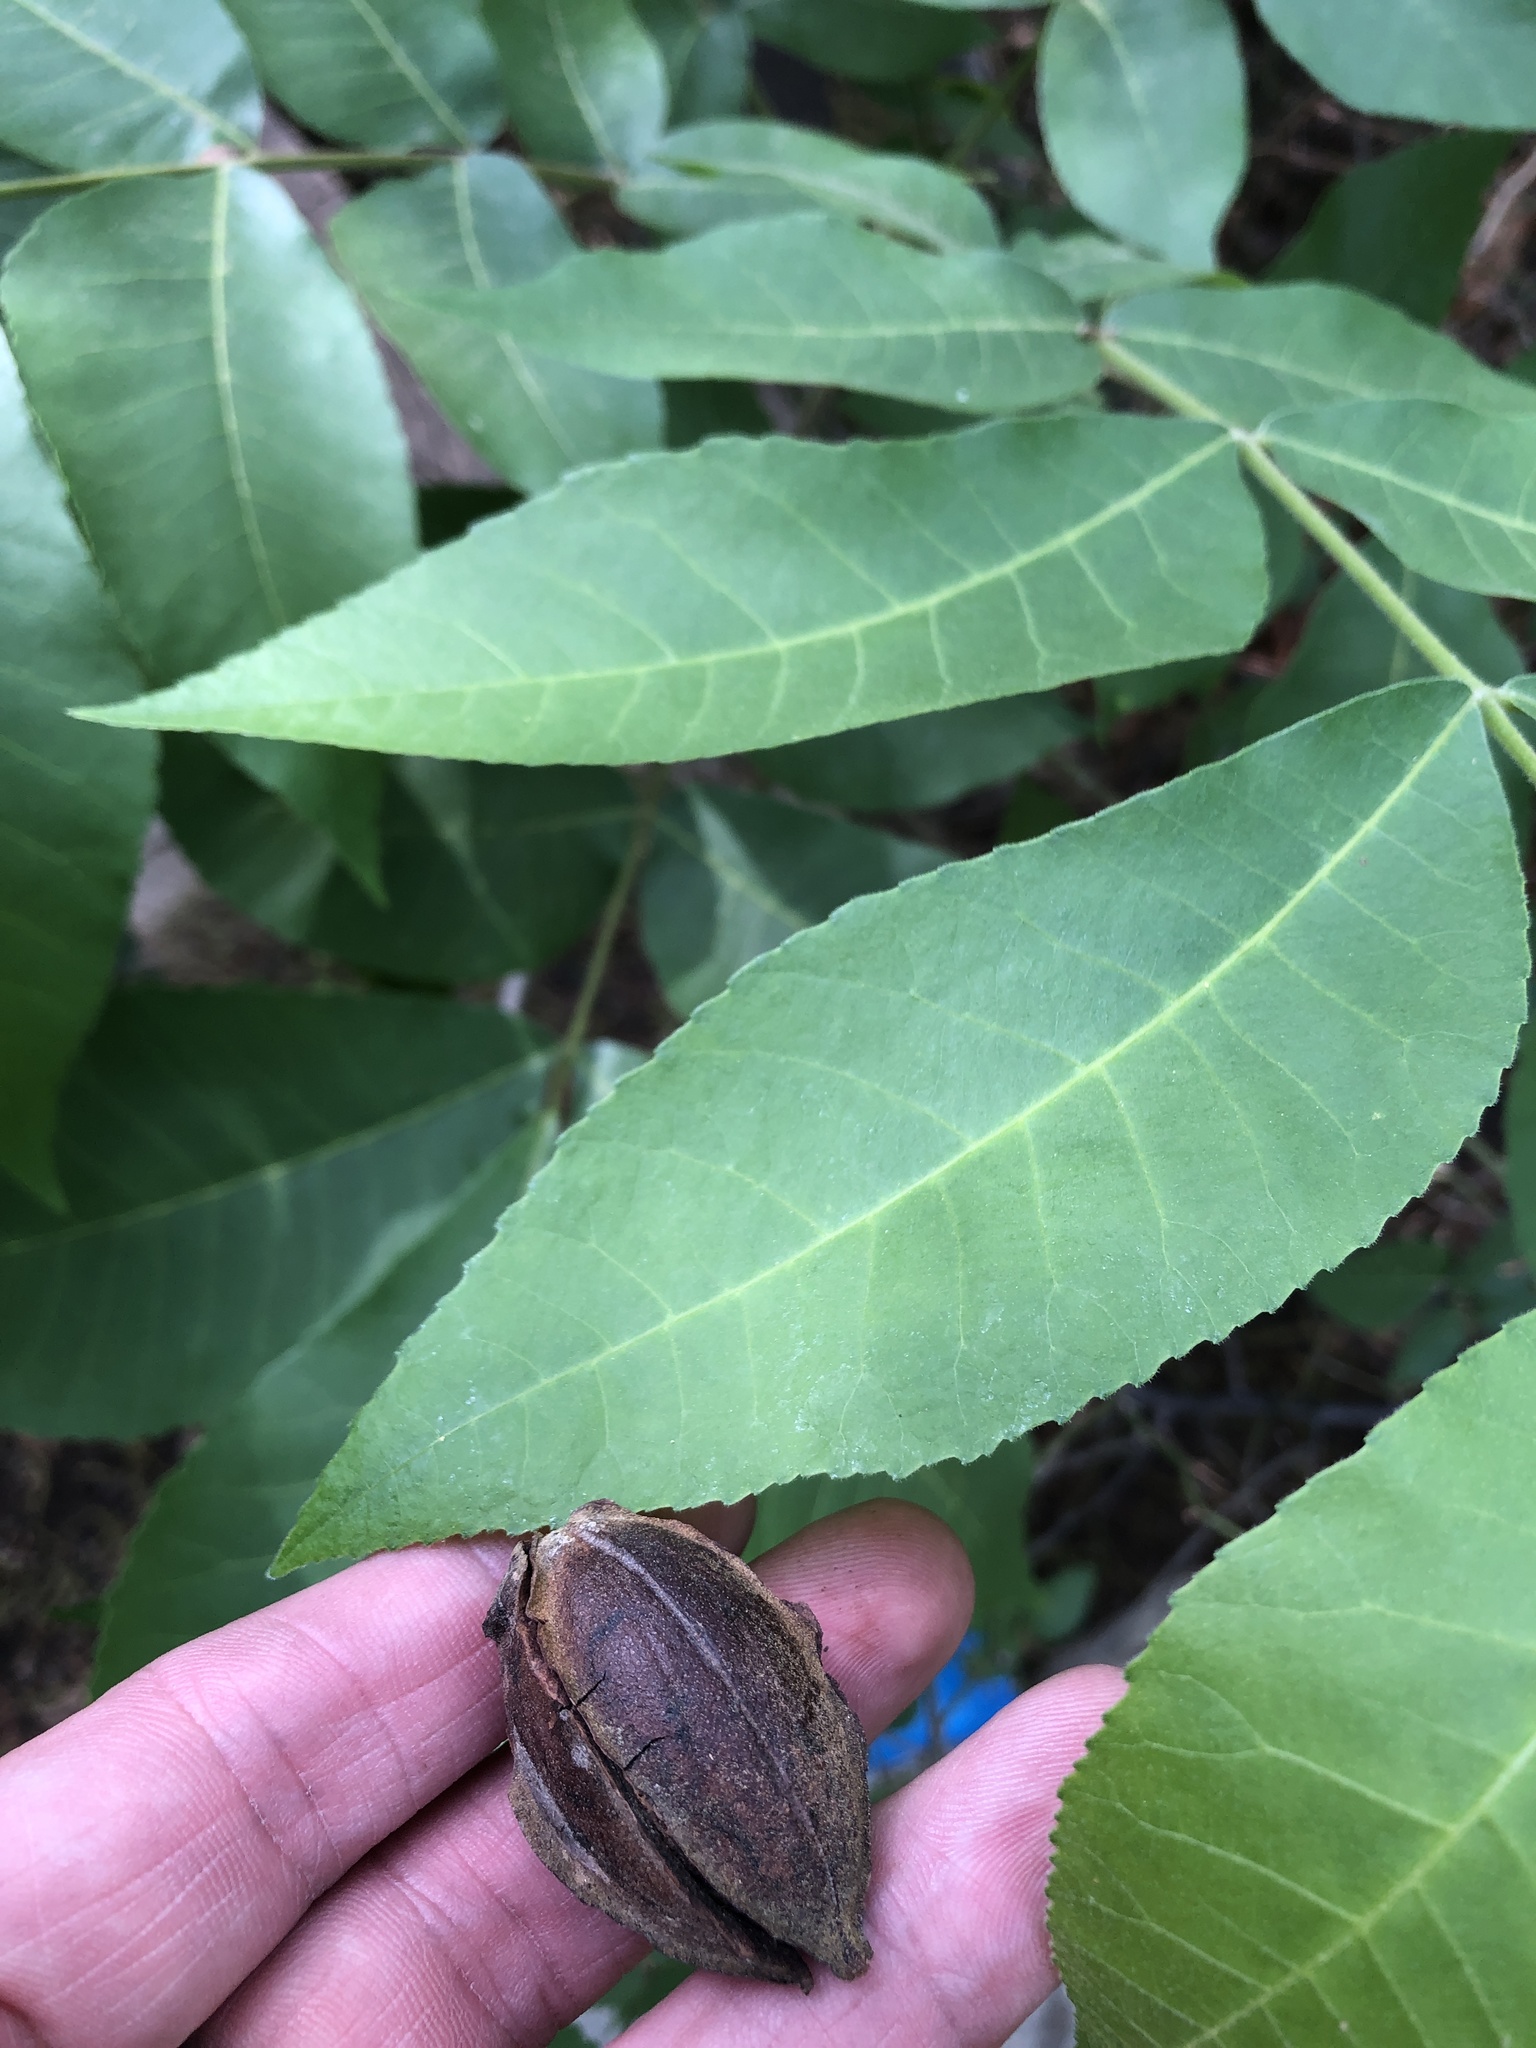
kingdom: Plantae
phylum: Tracheophyta
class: Magnoliopsida
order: Fagales
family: Juglandaceae
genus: Carya
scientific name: Carya illinoinensis
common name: Pecan
